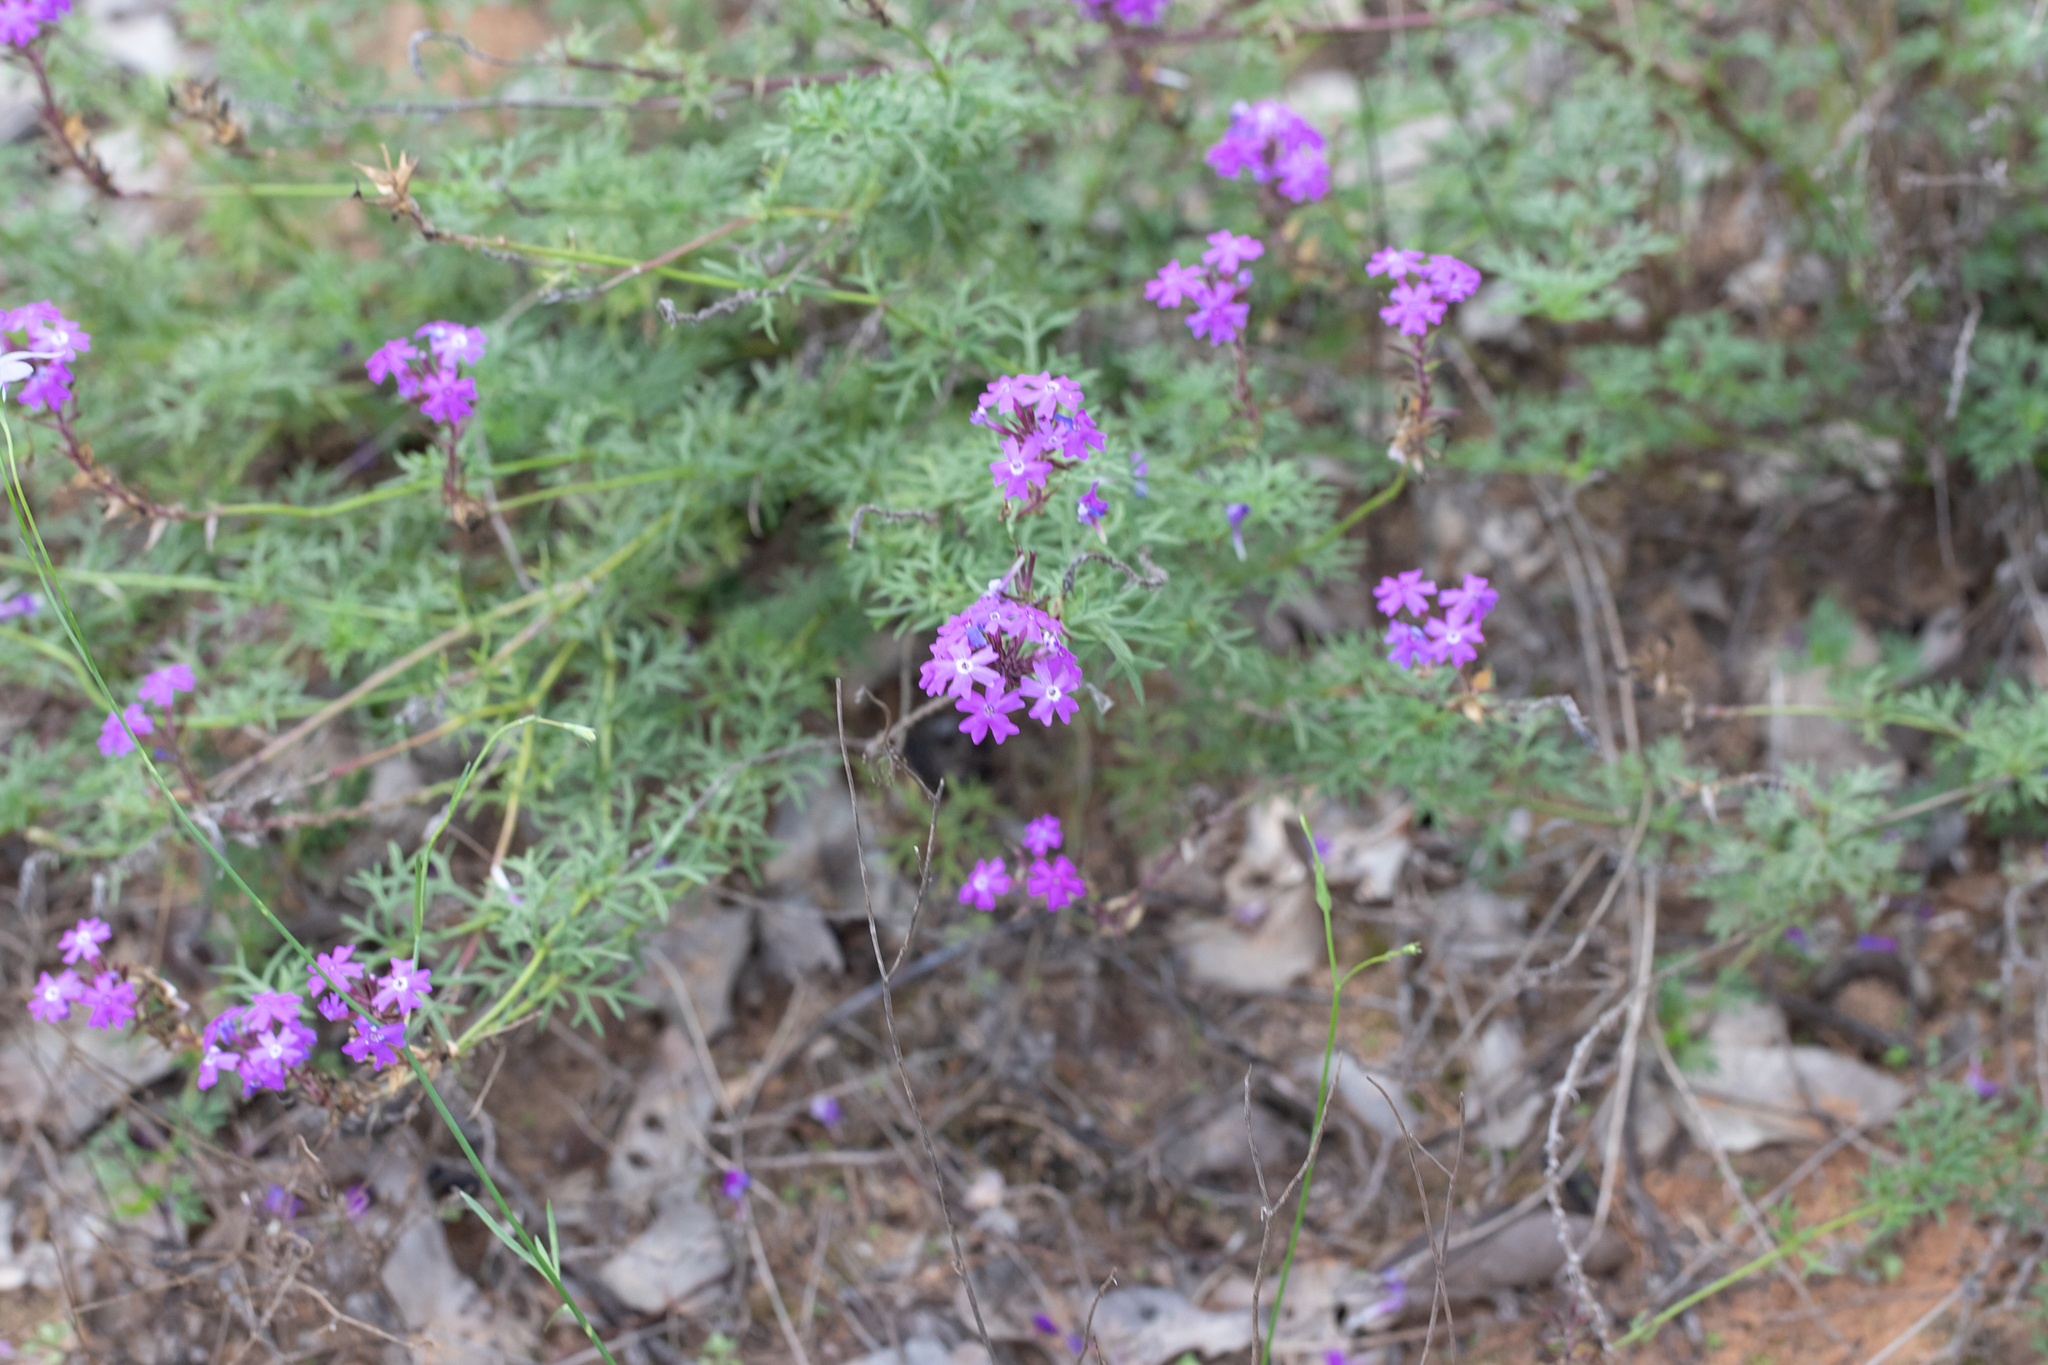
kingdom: Plantae
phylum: Tracheophyta
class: Magnoliopsida
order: Lamiales
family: Verbenaceae
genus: Verbena
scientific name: Verbena aristigera
